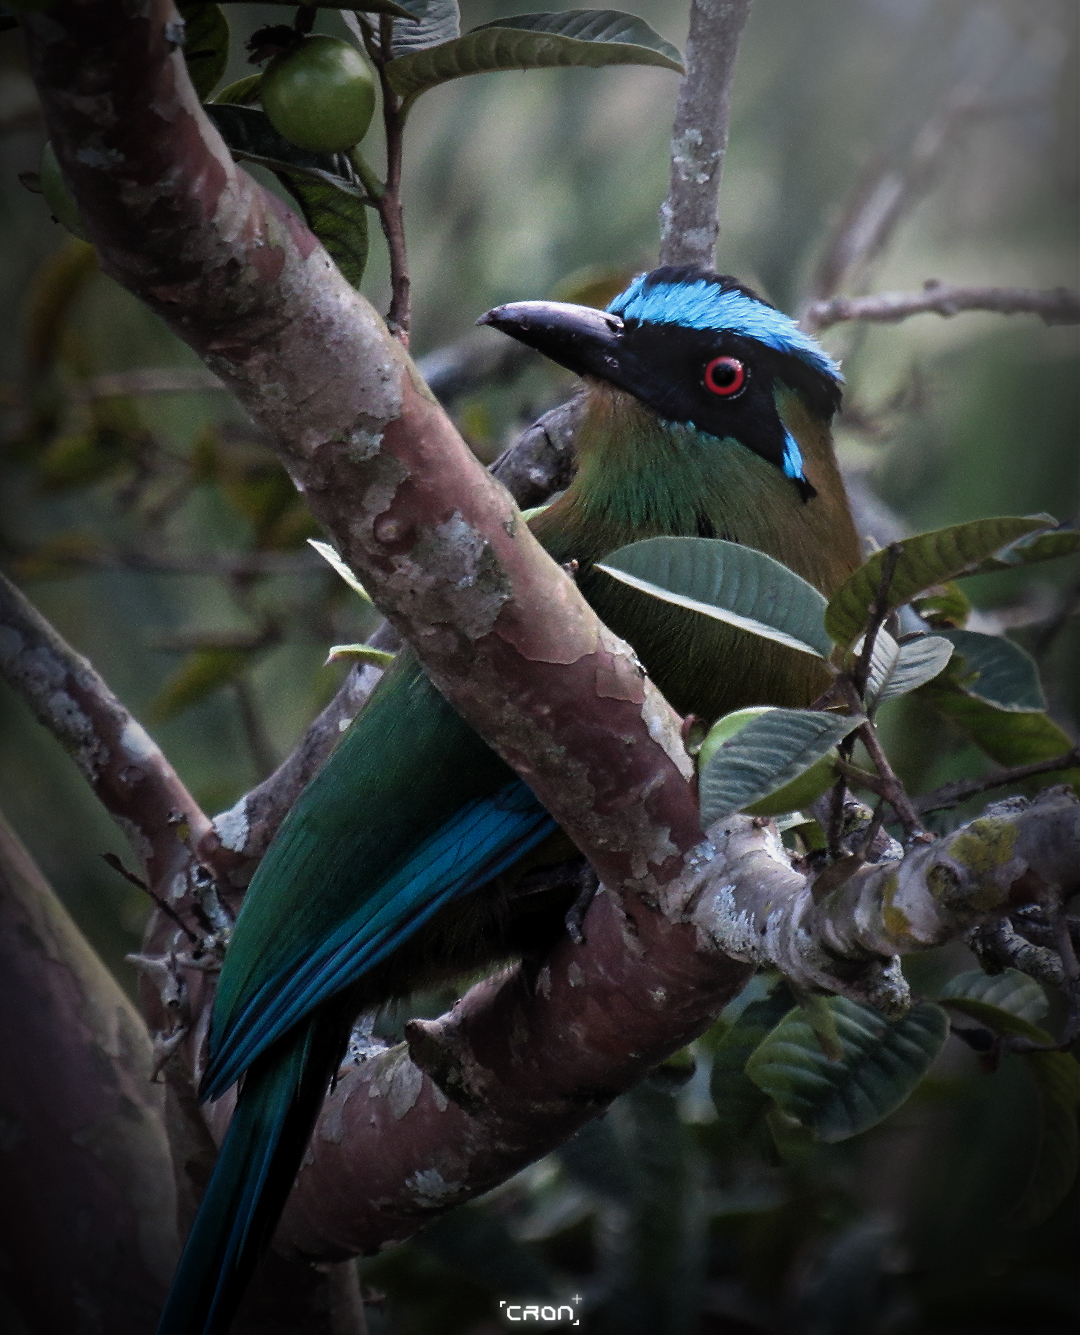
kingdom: Animalia
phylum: Chordata
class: Aves
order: Coraciiformes
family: Momotidae
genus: Momotus
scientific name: Momotus aequatorialis
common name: Andean motmot
